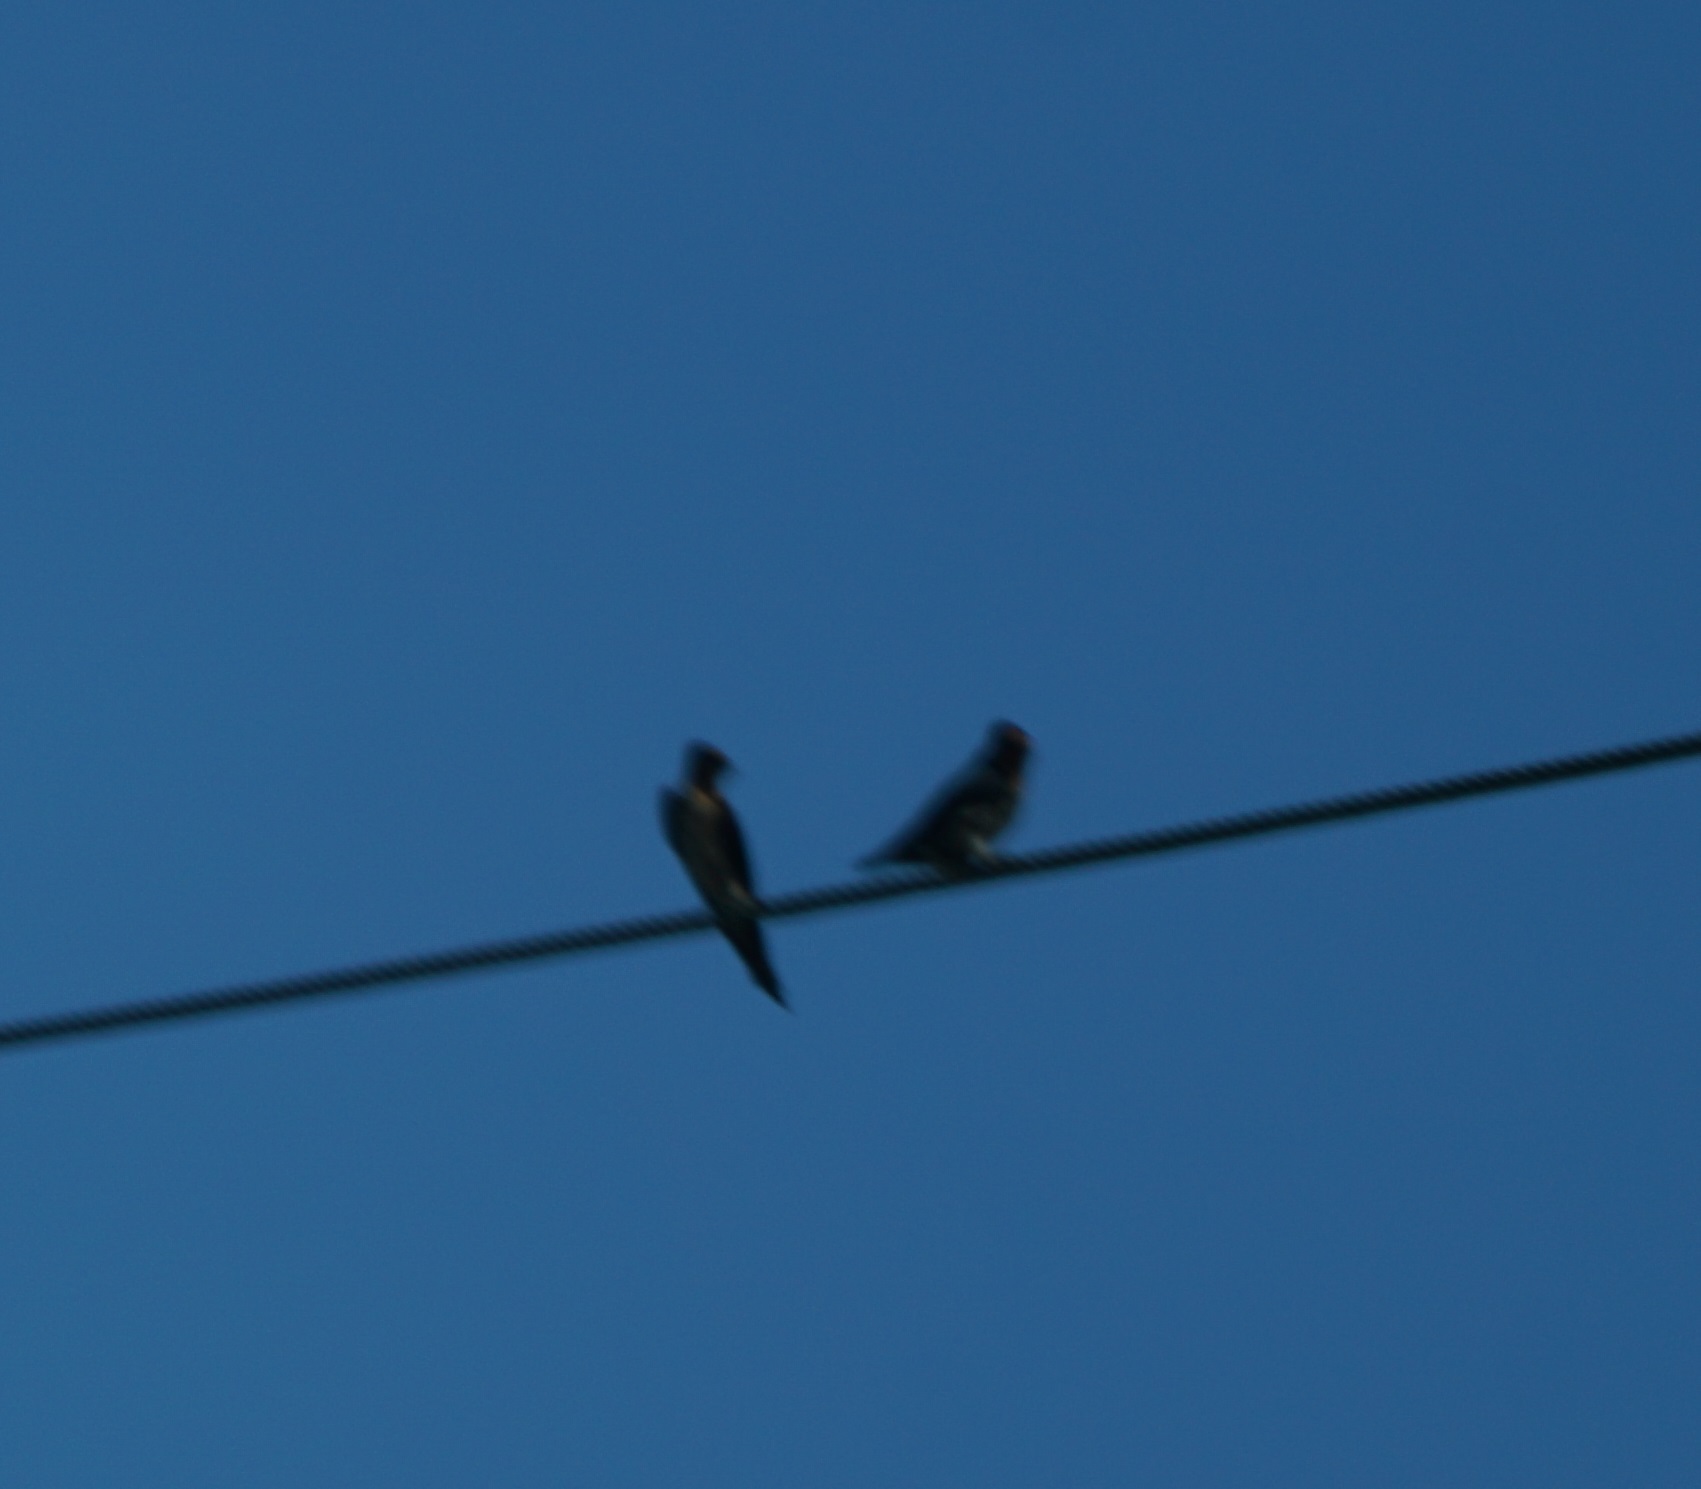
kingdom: Animalia
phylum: Chordata
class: Aves
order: Passeriformes
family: Hirundinidae
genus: Hirundo
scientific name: Hirundo tahitica
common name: Pacific swallow
